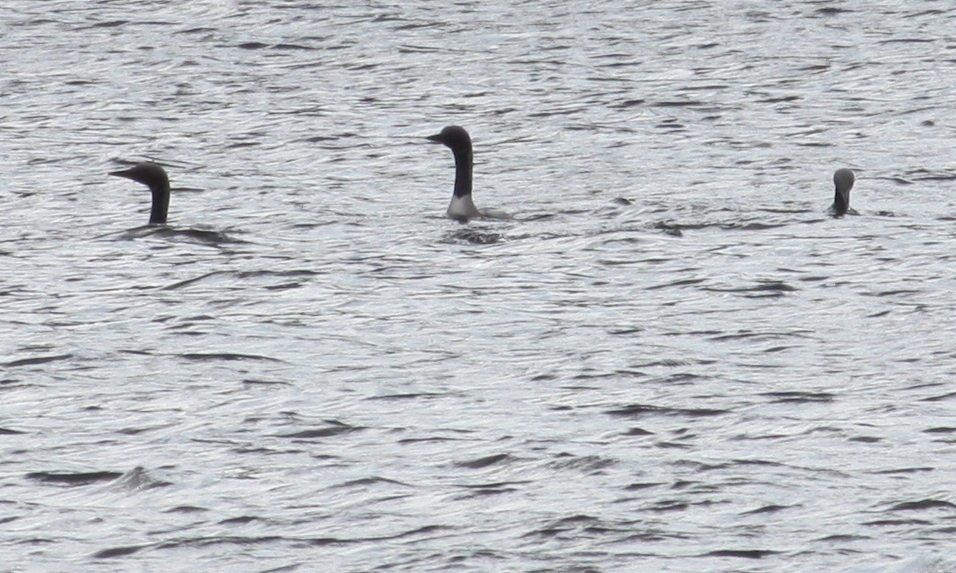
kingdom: Animalia
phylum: Chordata
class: Aves
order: Gaviiformes
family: Gaviidae
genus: Gavia
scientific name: Gavia arctica
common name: Black-throated loon
